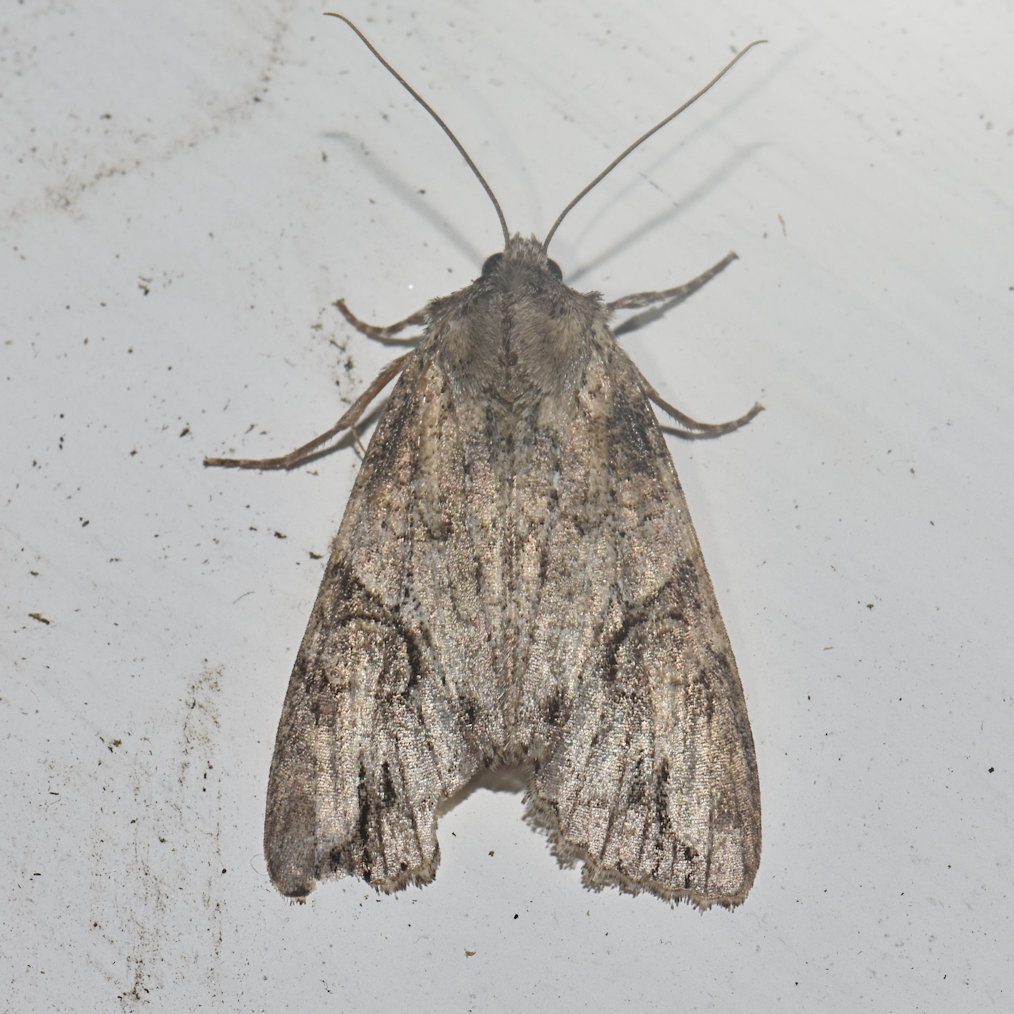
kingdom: Animalia
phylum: Arthropoda
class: Insecta
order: Lepidoptera
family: Noctuidae
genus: Achatia
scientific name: Achatia latex
